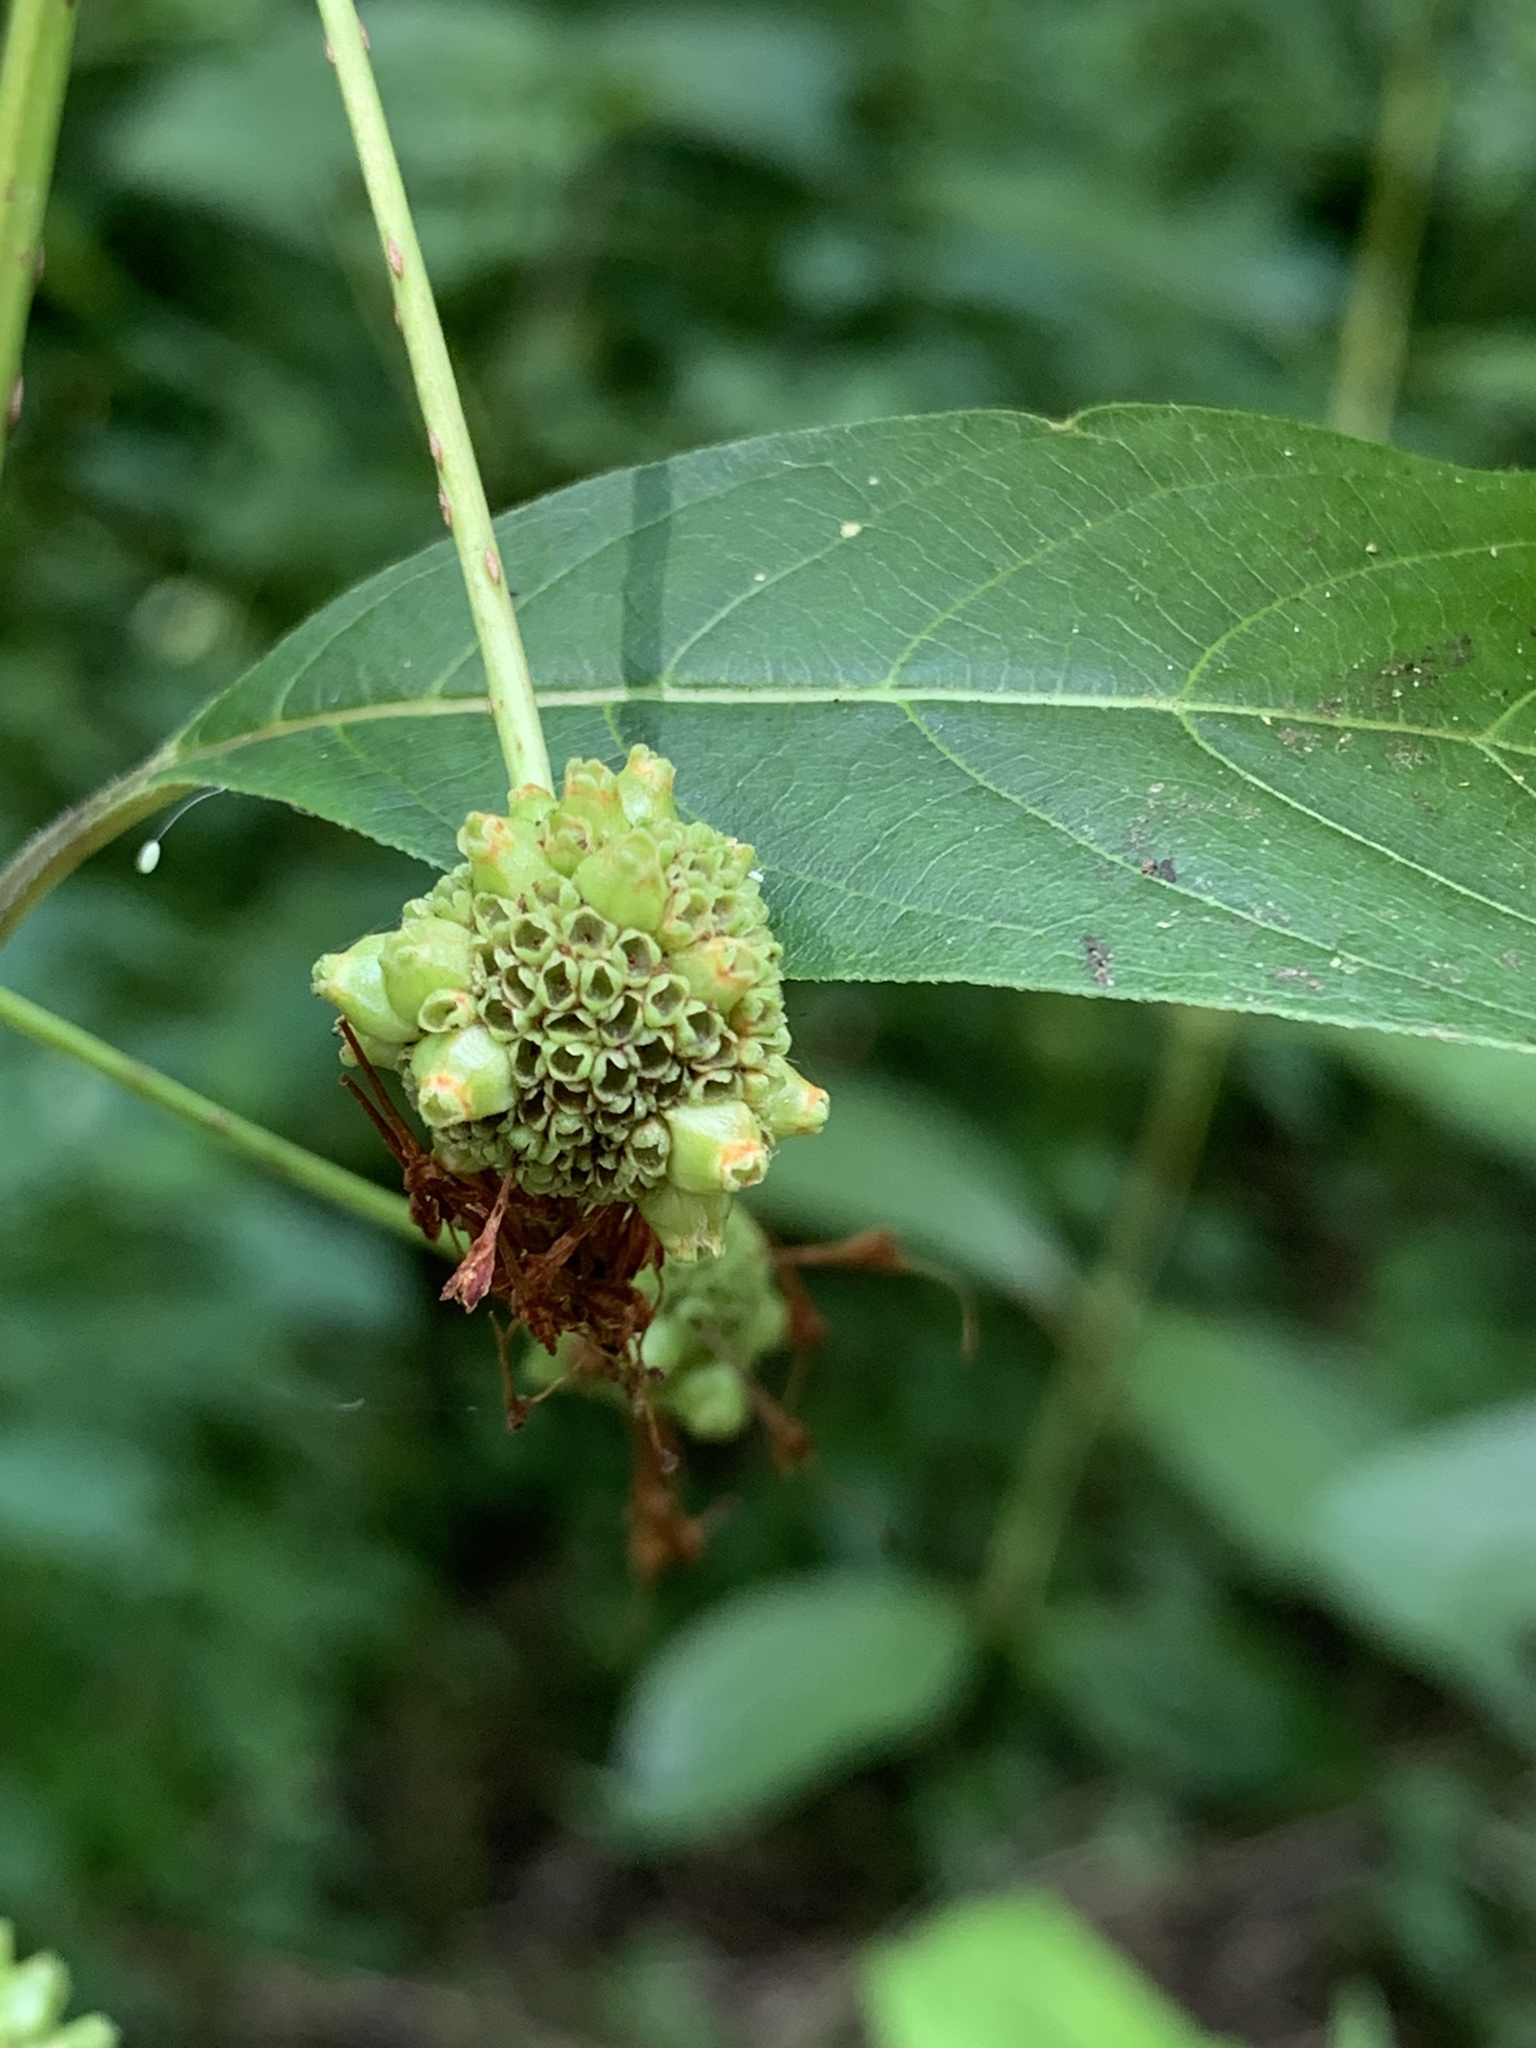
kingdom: Plantae
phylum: Tracheophyta
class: Magnoliopsida
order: Gentianales
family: Rubiaceae
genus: Cephalanthus
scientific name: Cephalanthus occidentalis
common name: Button-willow
